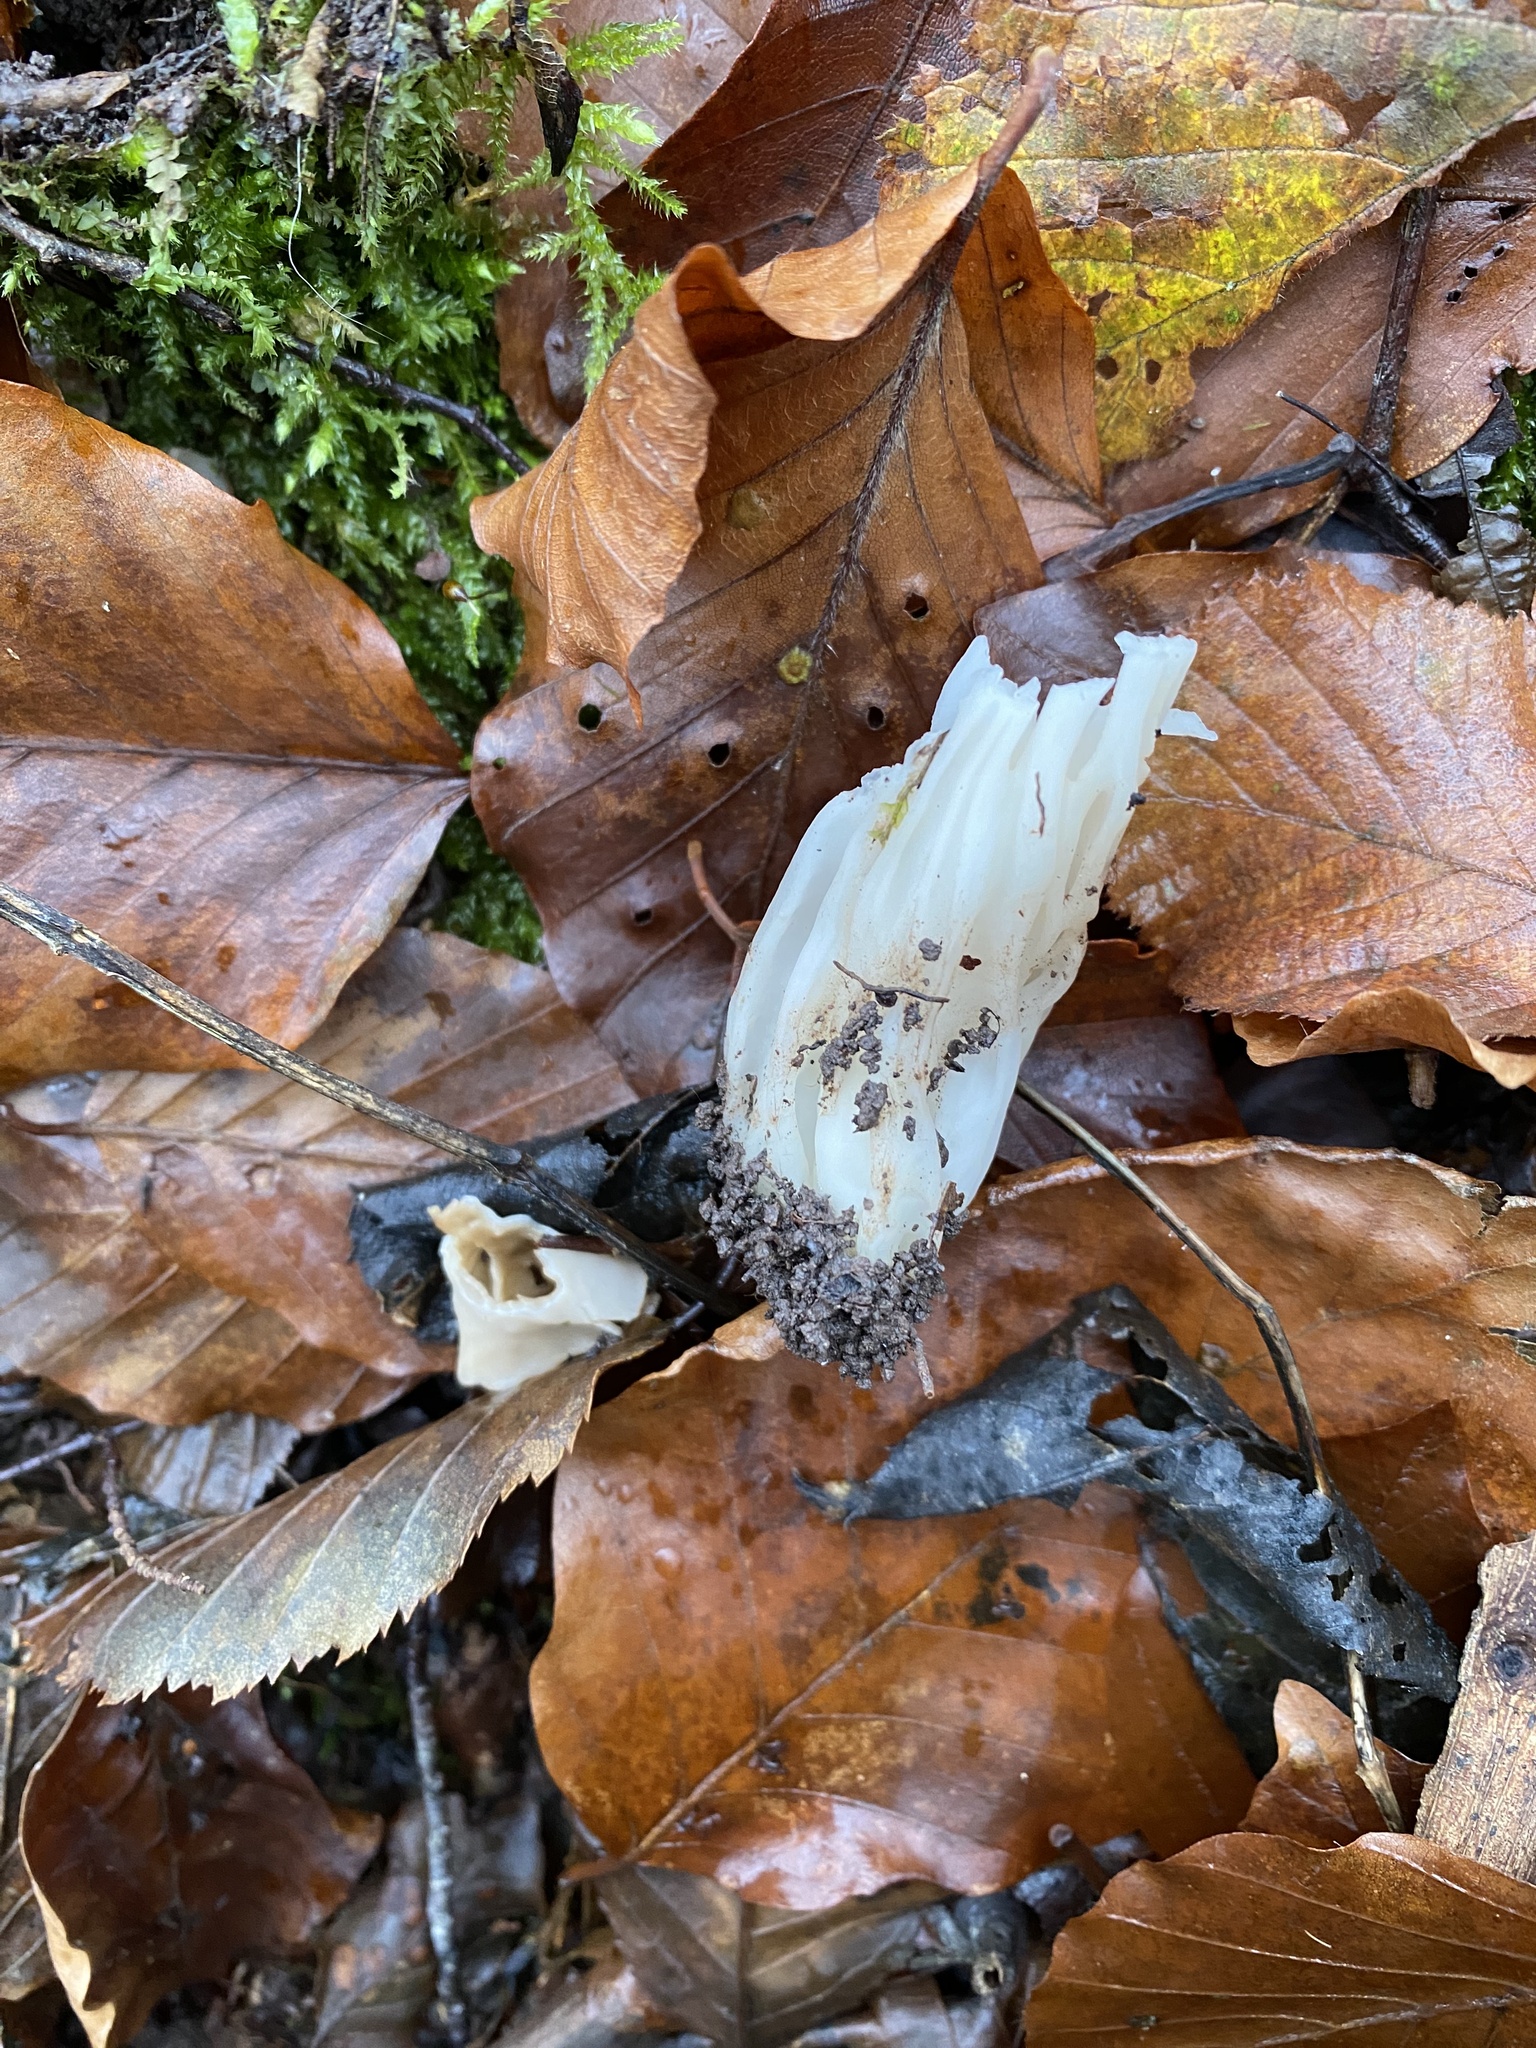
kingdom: Fungi
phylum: Ascomycota
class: Pezizomycetes
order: Pezizales
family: Helvellaceae
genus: Helvella
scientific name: Helvella crispa
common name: White saddle
